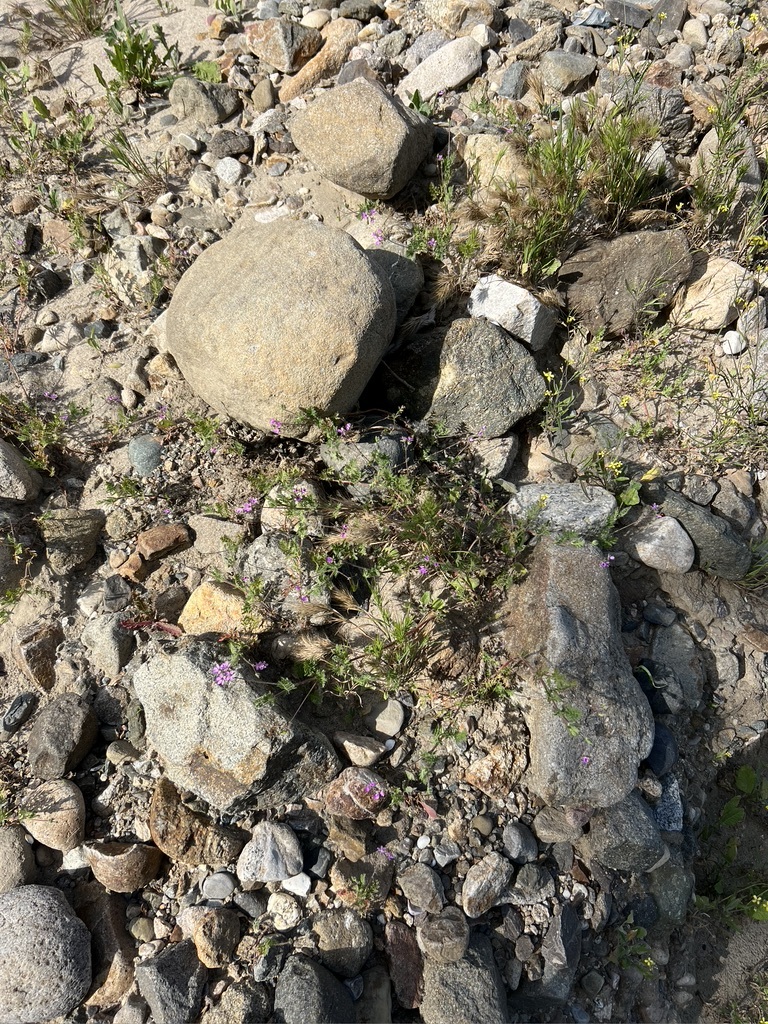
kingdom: Plantae
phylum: Tracheophyta
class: Magnoliopsida
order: Geraniales
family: Geraniaceae
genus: Erodium
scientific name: Erodium cicutarium
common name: Common stork's-bill
